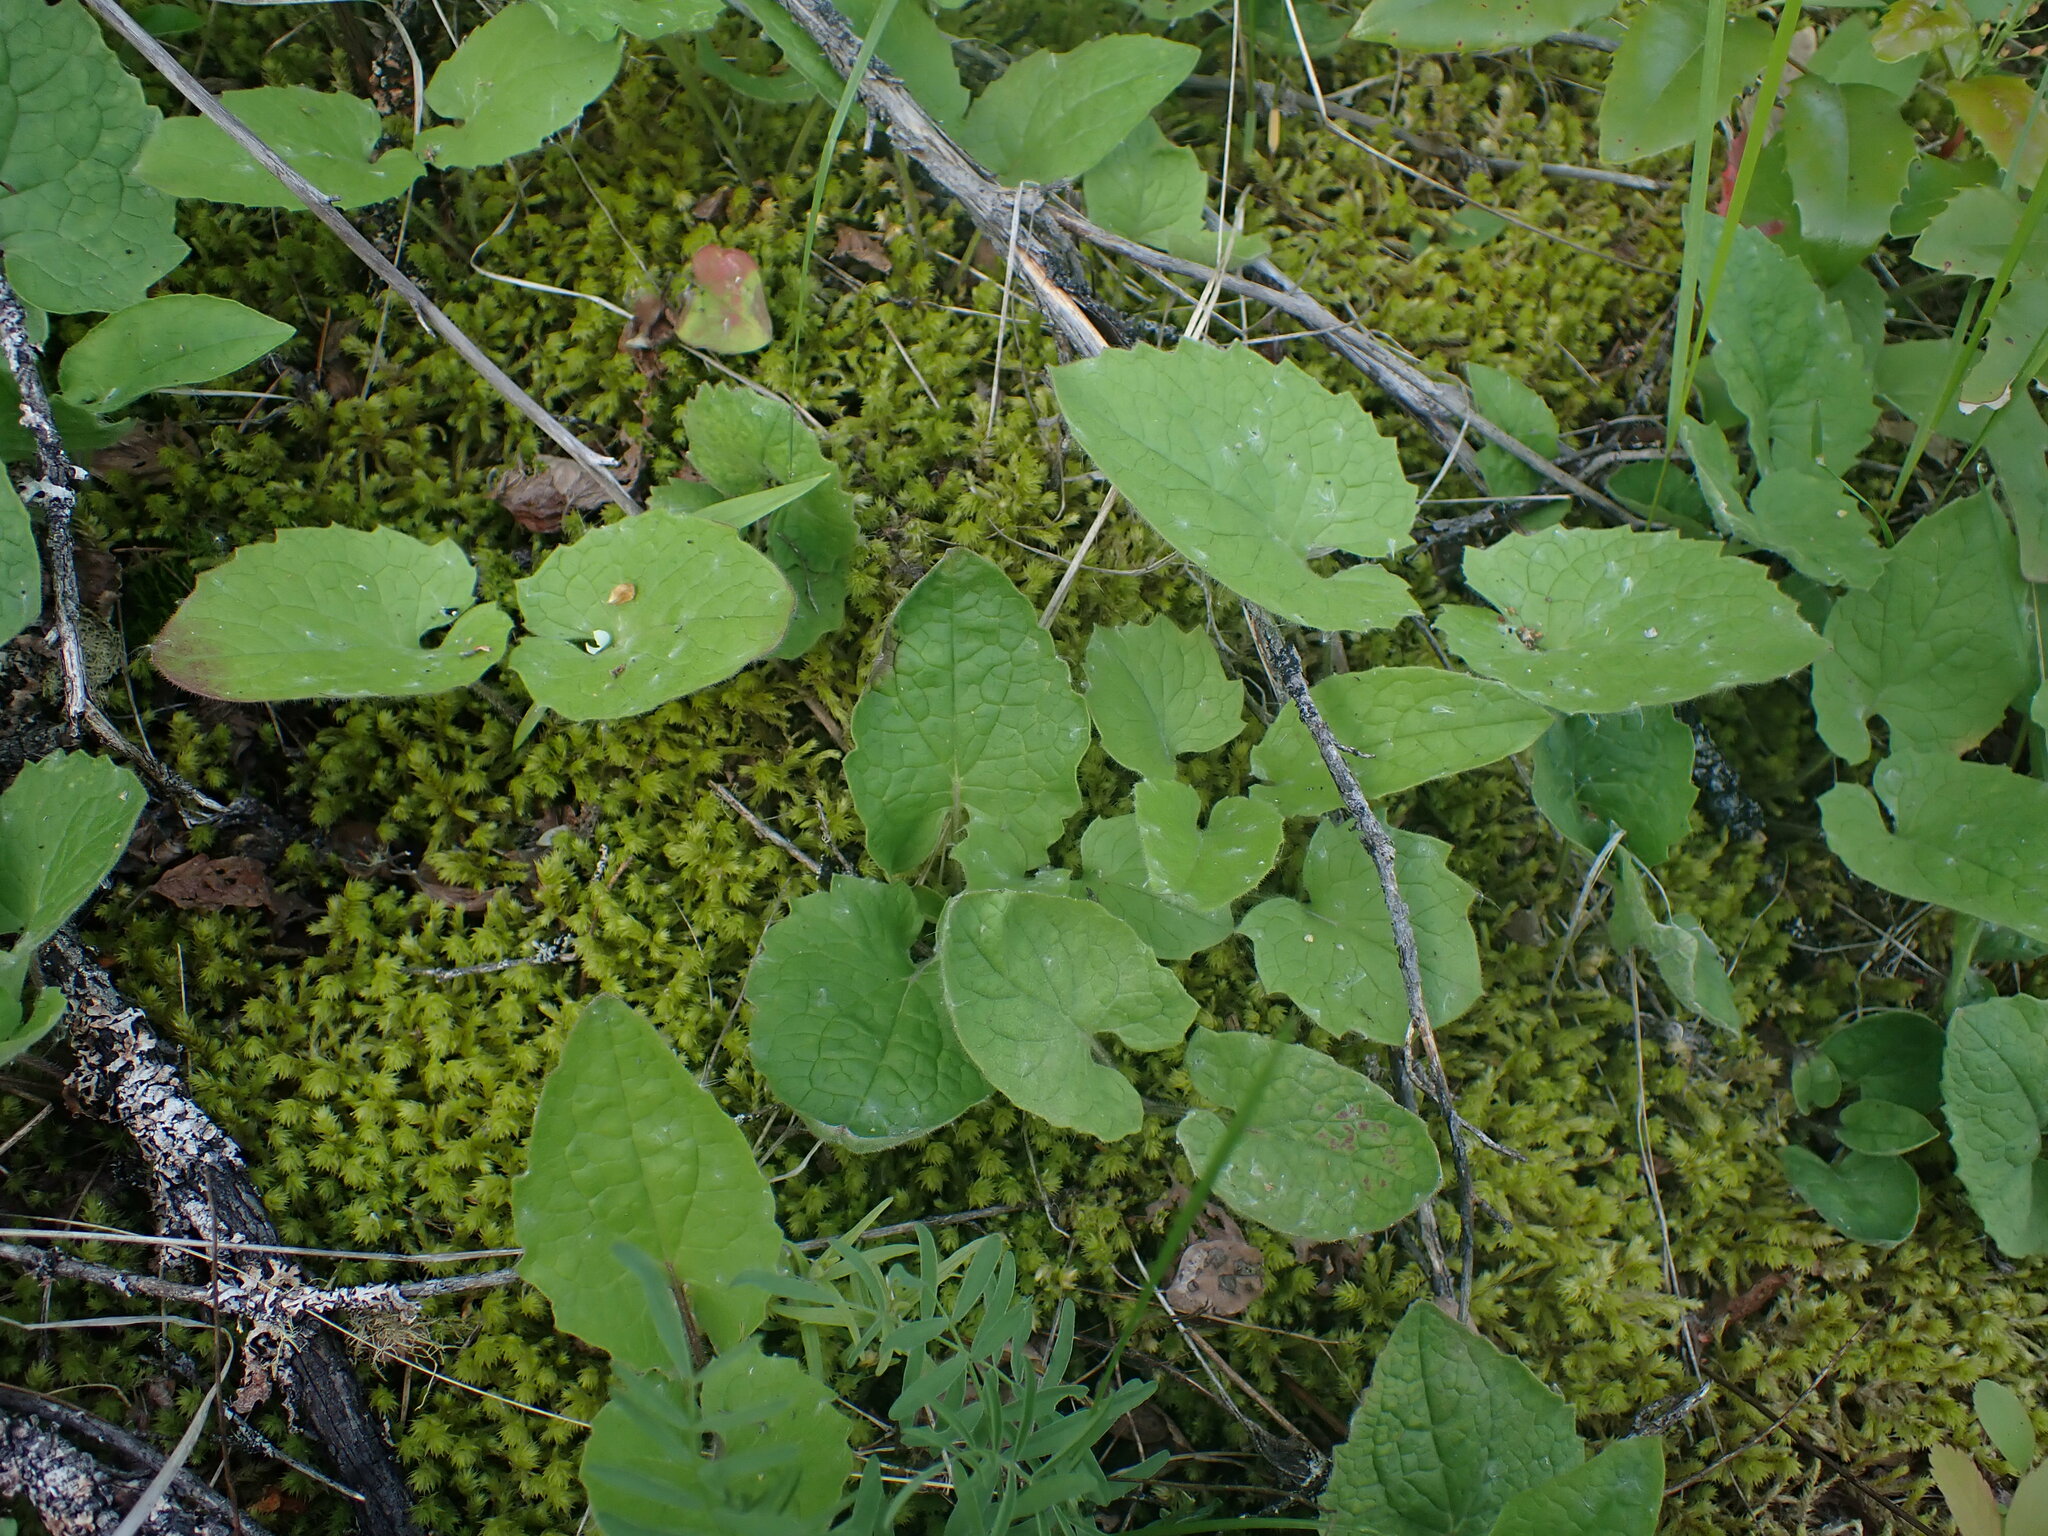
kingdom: Plantae
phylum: Tracheophyta
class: Magnoliopsida
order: Asterales
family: Asteraceae
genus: Arnica
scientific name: Arnica cordifolia
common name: Heart-leaf arnica
